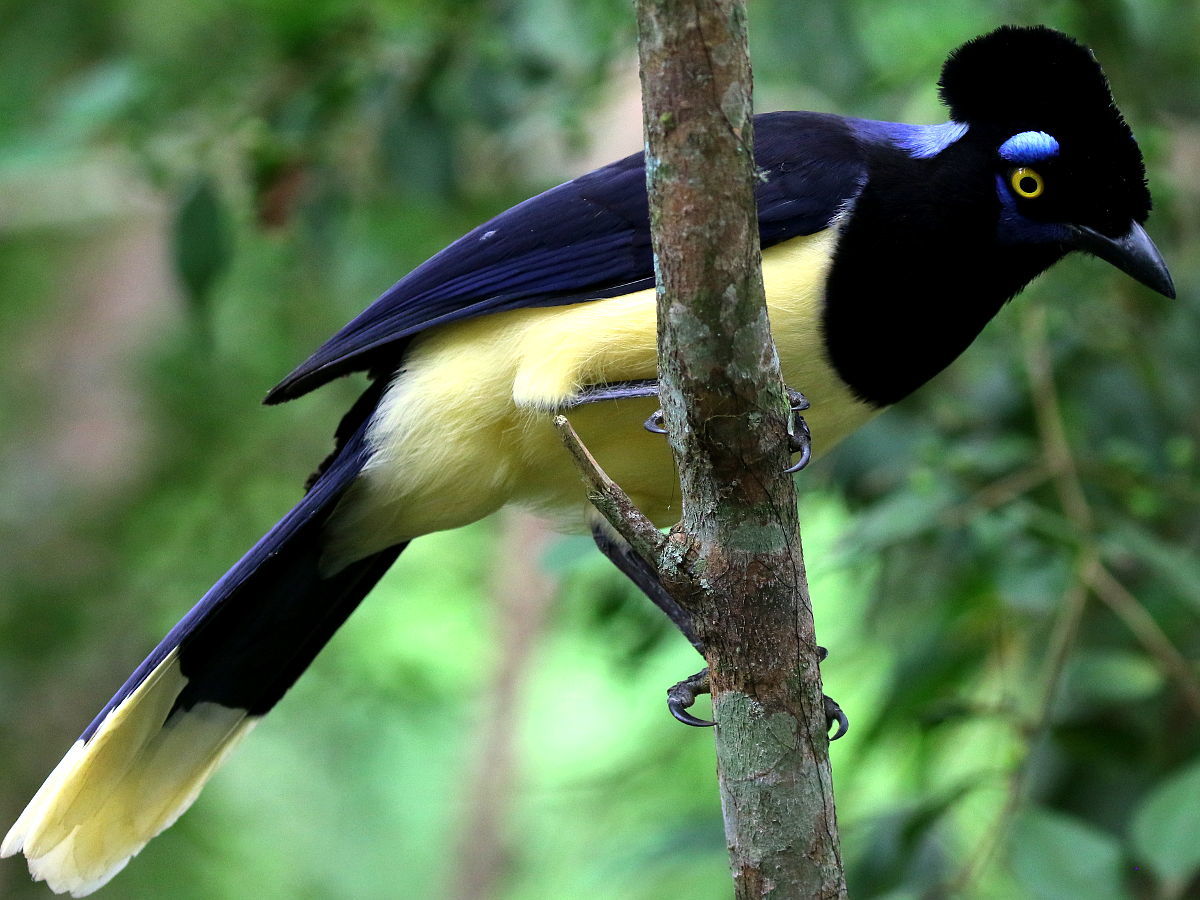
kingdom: Animalia
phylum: Chordata
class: Aves
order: Passeriformes
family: Corvidae
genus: Cyanocorax
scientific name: Cyanocorax chrysops
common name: Plush-crested jay
